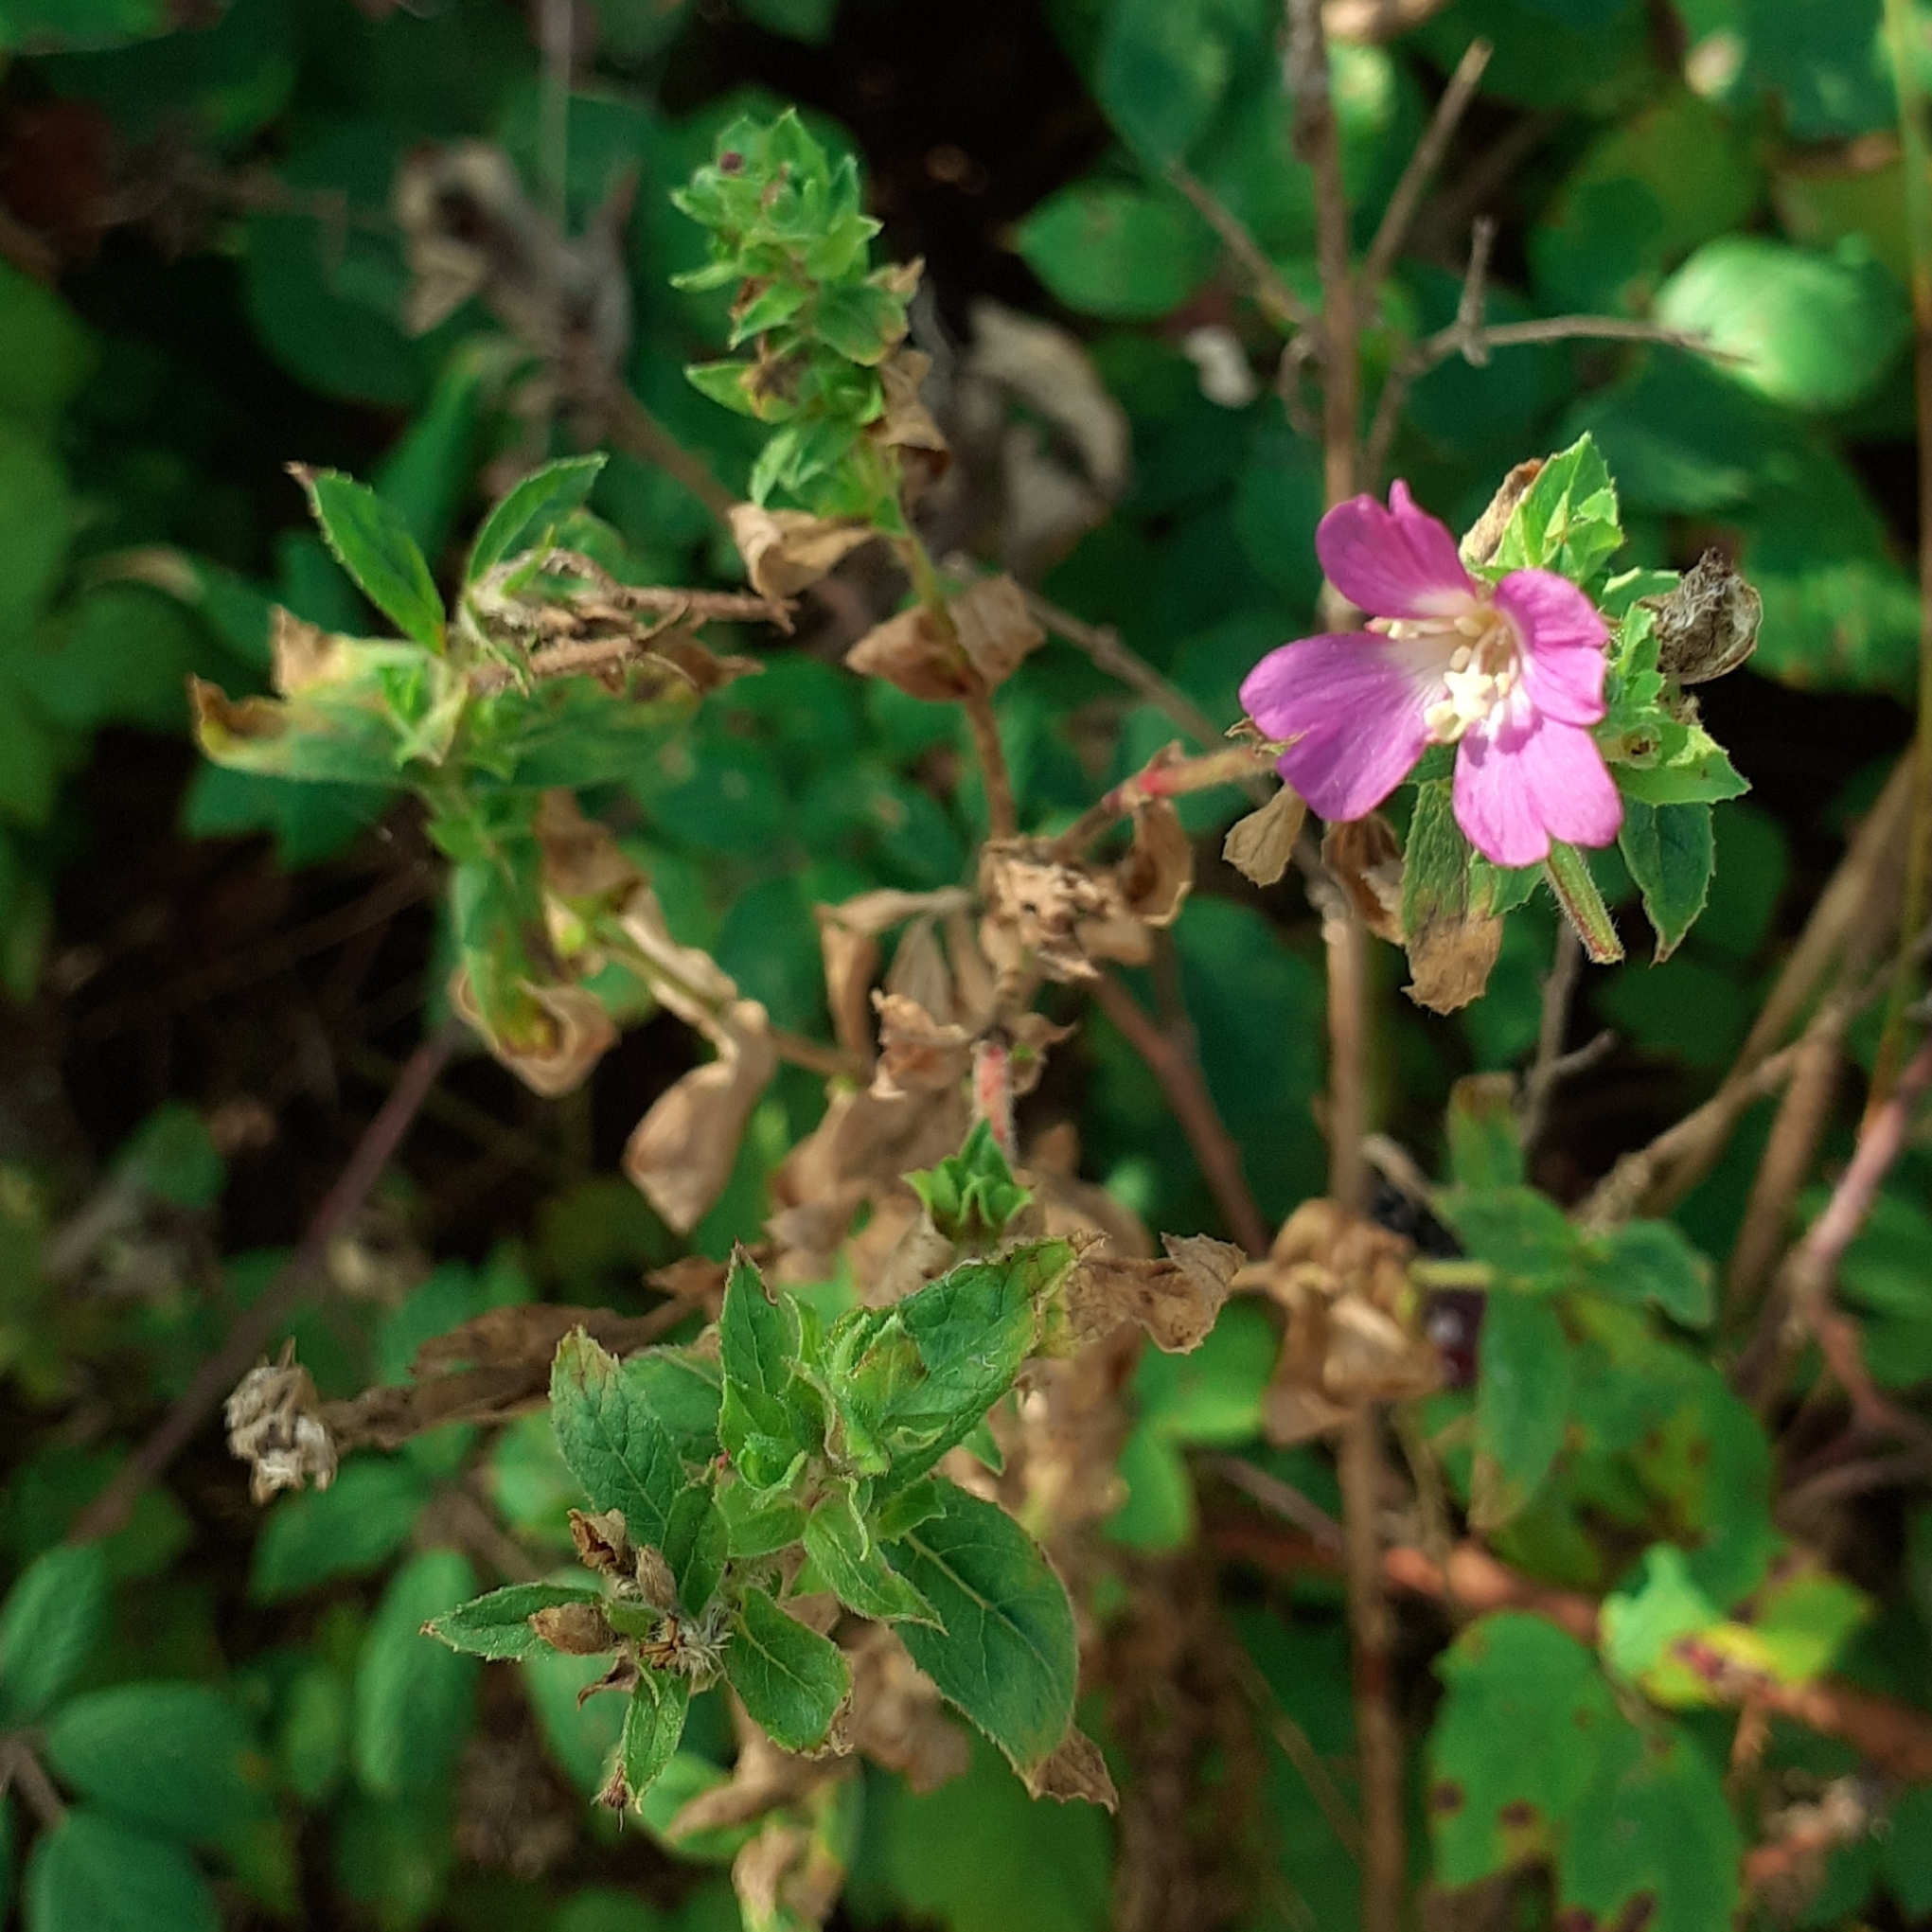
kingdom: Plantae
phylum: Tracheophyta
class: Magnoliopsida
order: Myrtales
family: Onagraceae
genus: Epilobium
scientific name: Epilobium hirsutum
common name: Great willowherb
